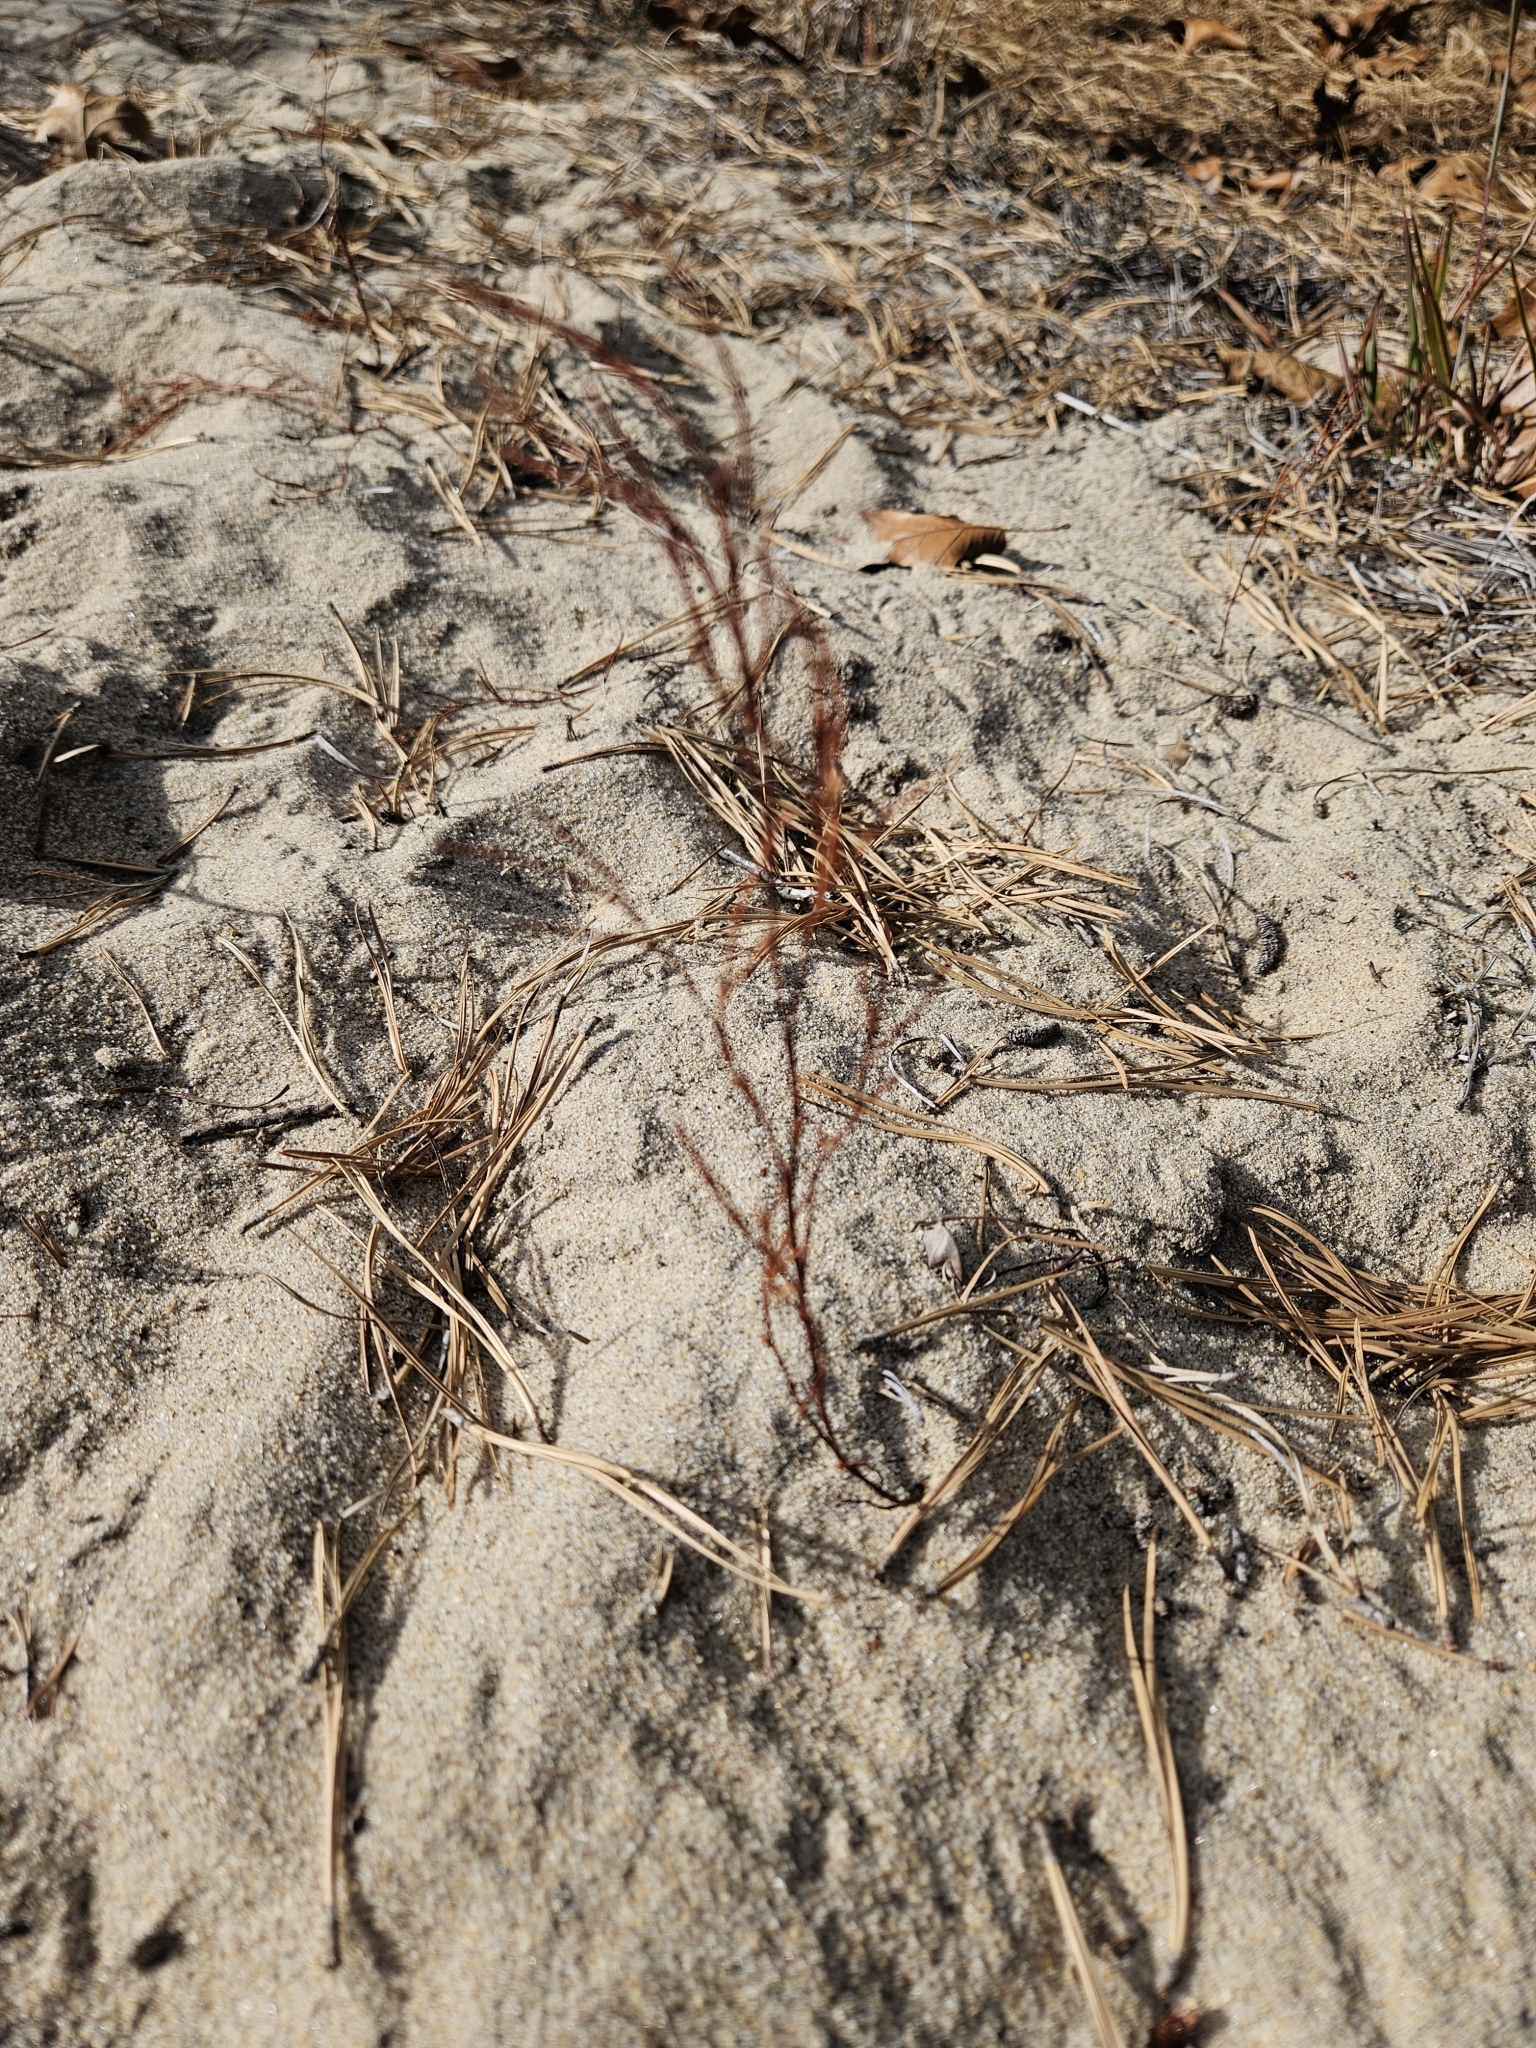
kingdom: Plantae
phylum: Tracheophyta
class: Magnoliopsida
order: Caryophyllales
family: Polygonaceae
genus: Polygonella
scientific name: Polygonella articulata
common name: Coastal jointweed
